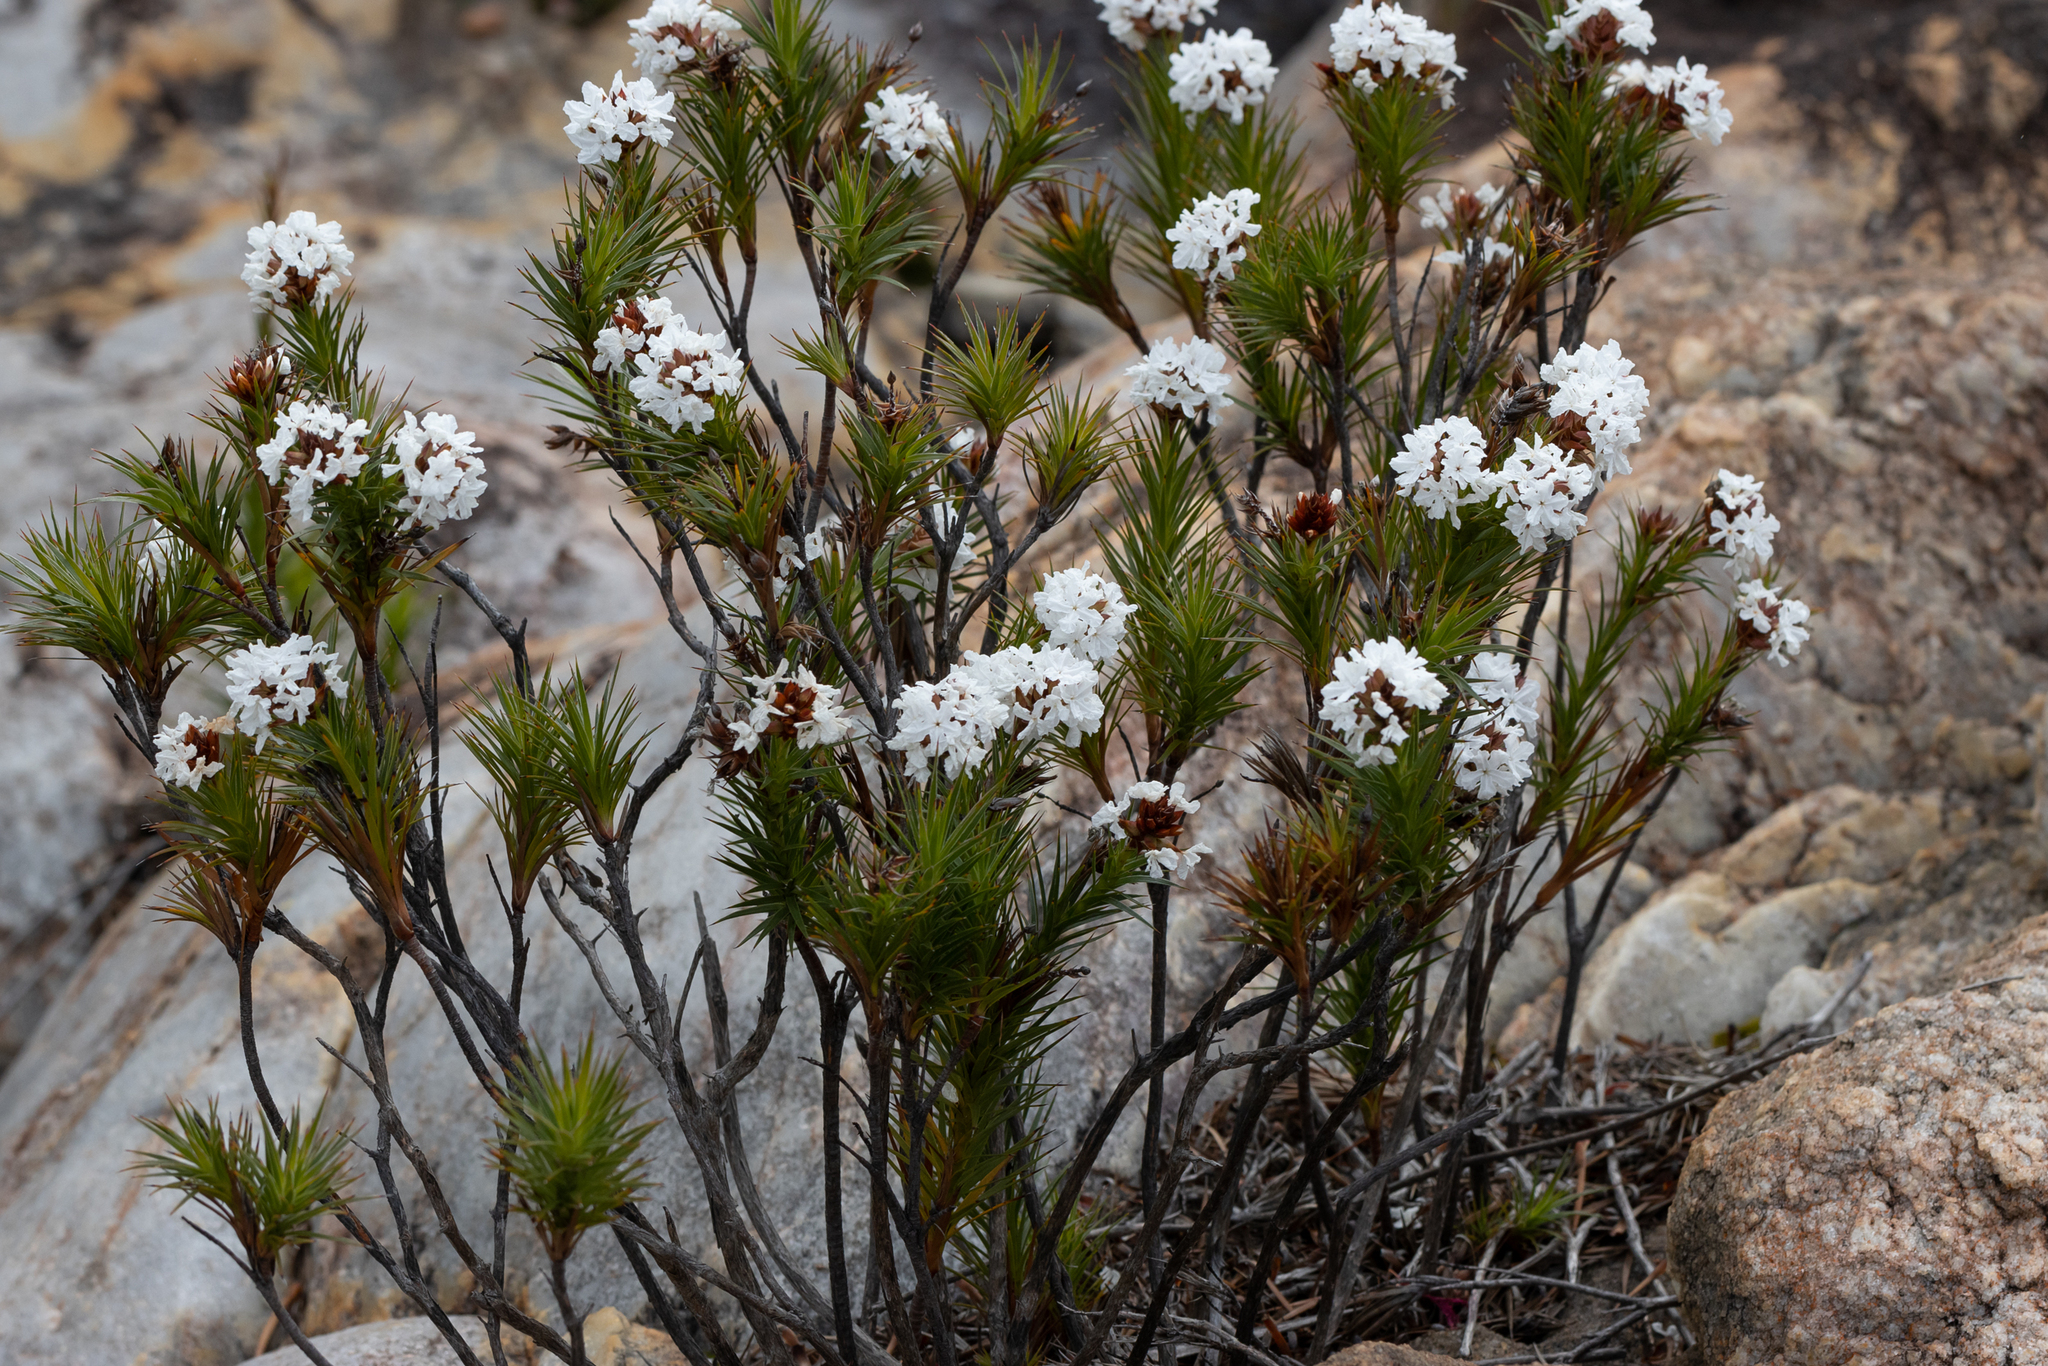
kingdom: Plantae
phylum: Tracheophyta
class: Magnoliopsida
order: Ericales
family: Ericaceae
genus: Sphenotoma
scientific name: Sphenotoma dracophylloides
